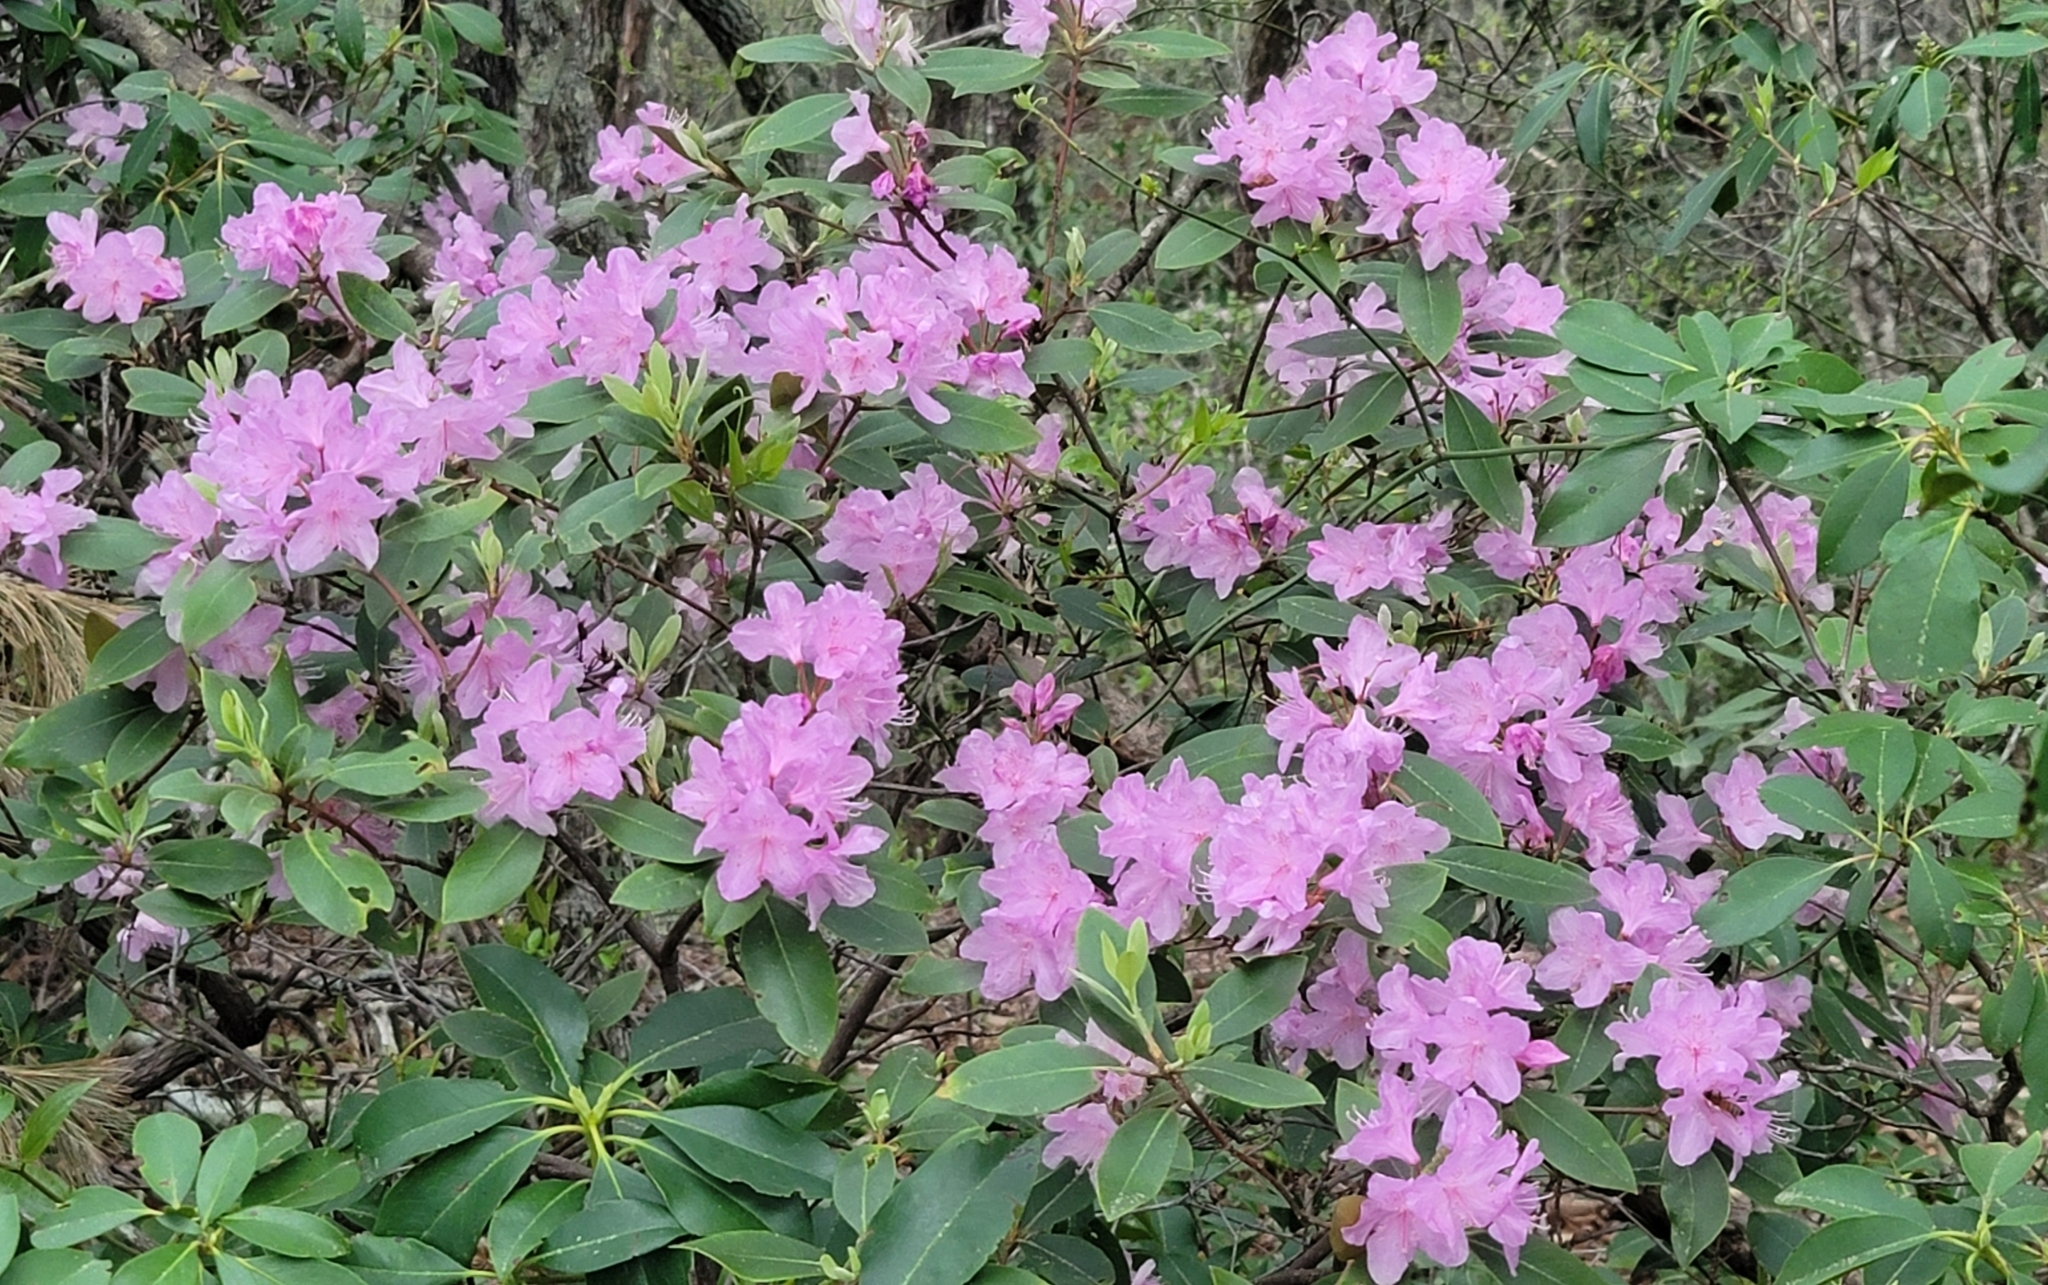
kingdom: Plantae
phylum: Tracheophyta
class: Magnoliopsida
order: Ericales
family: Ericaceae
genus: Rhododendron
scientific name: Rhododendron minus
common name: Piedmont rhododendron
